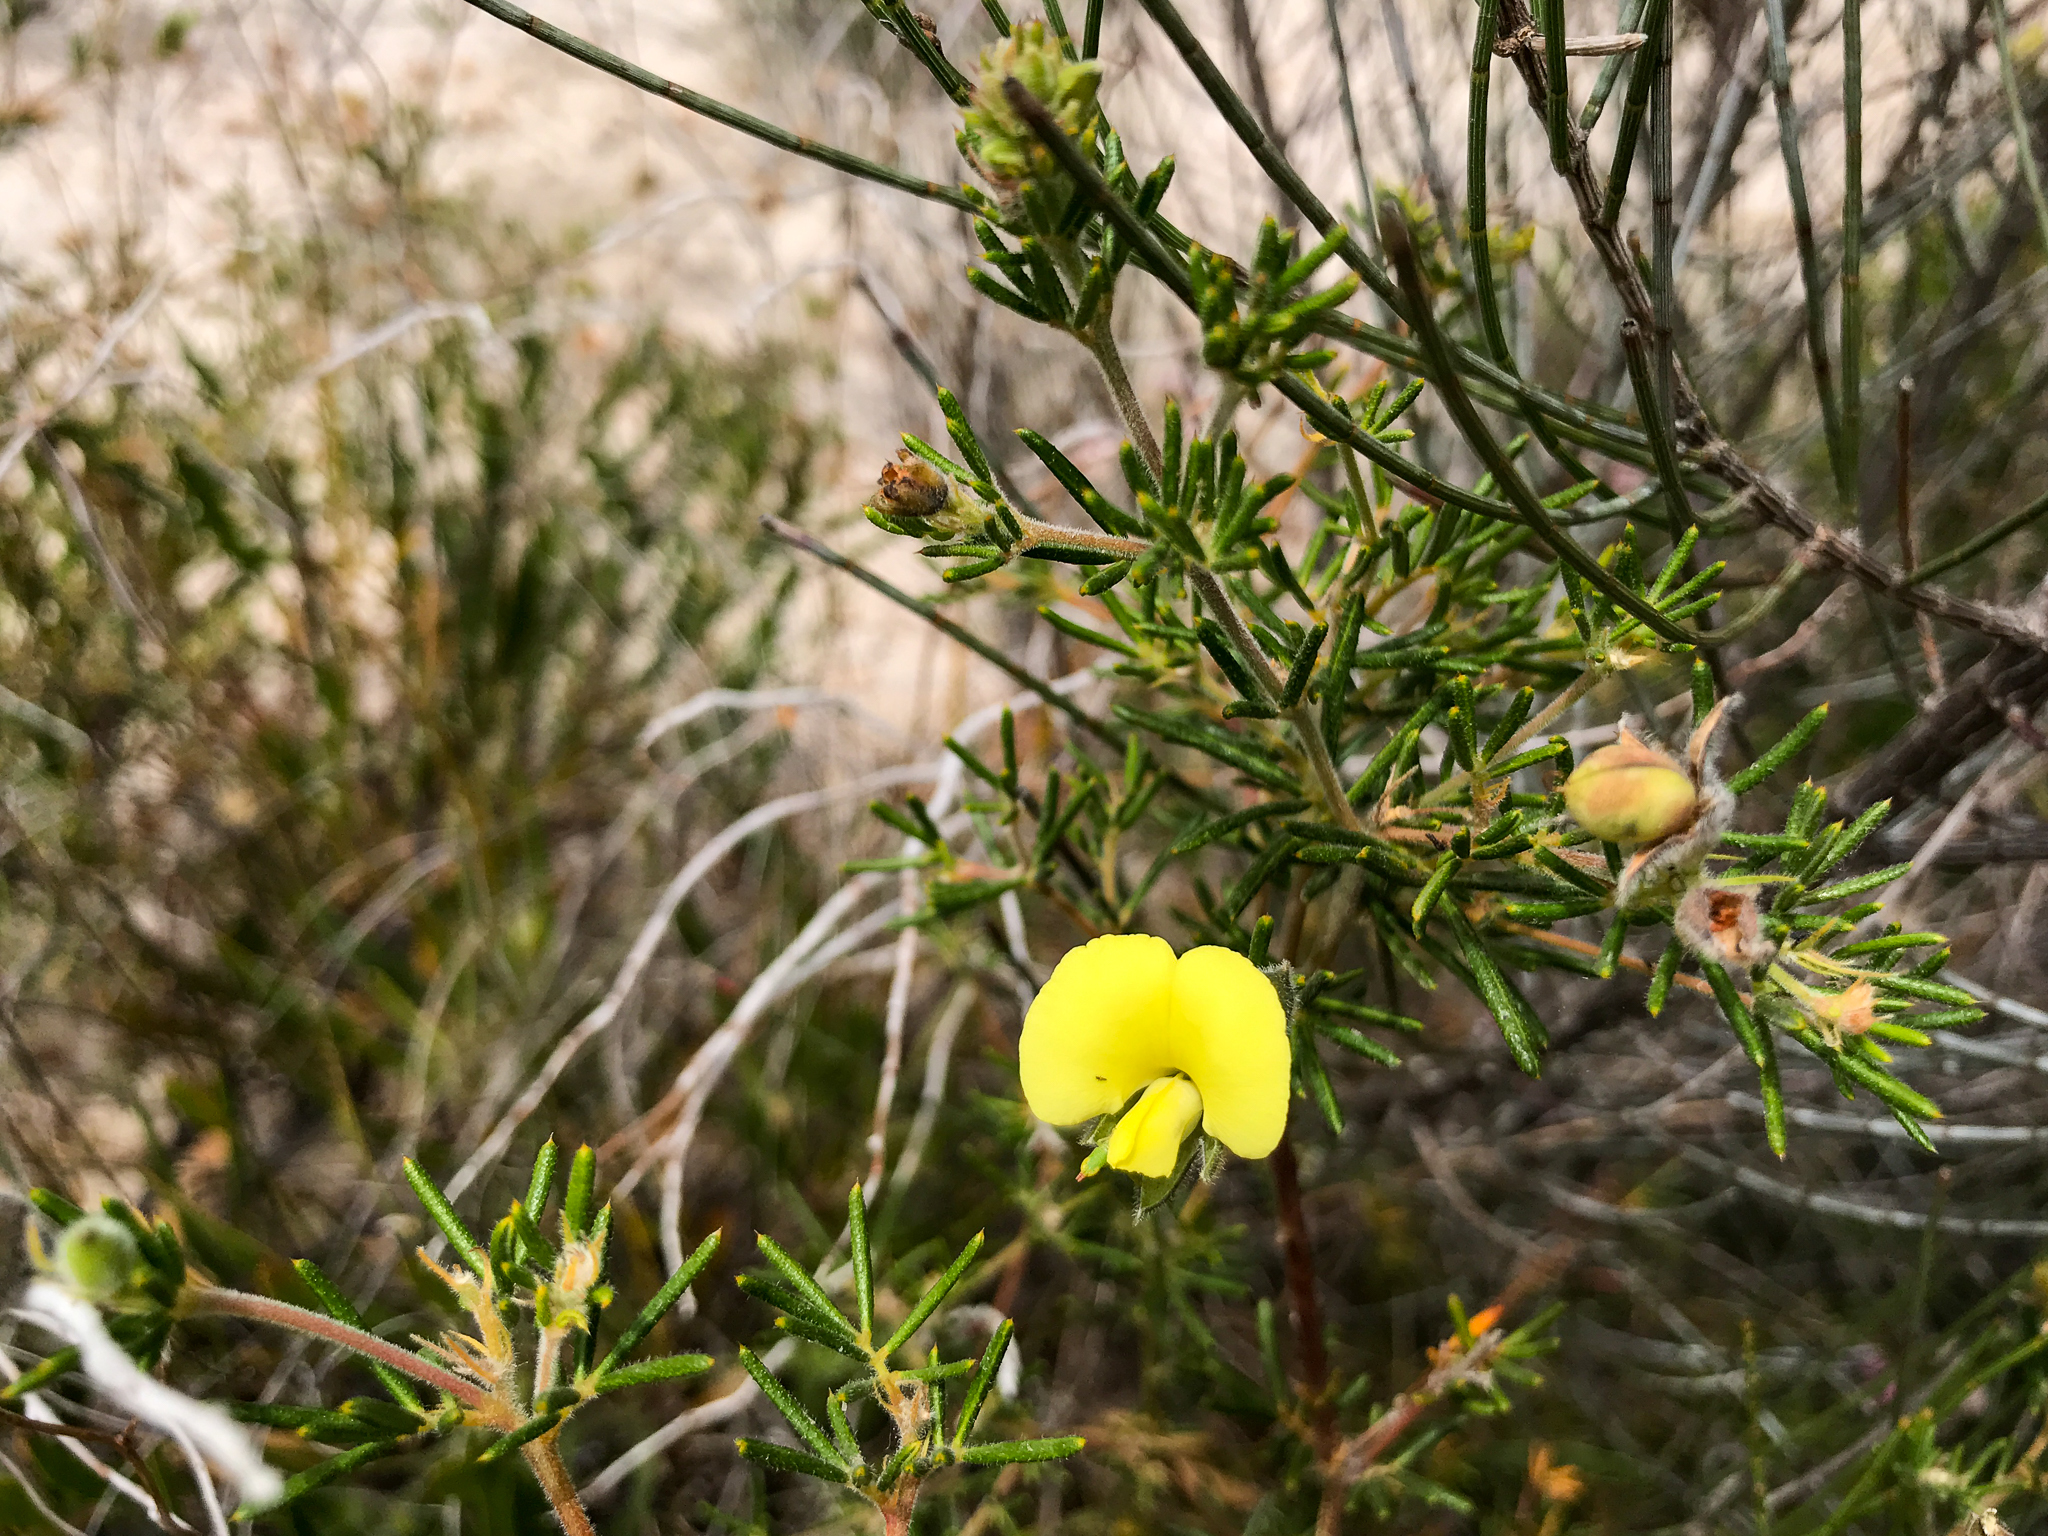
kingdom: Plantae
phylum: Tracheophyta
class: Magnoliopsida
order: Fabales
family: Fabaceae
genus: Gompholobium
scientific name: Gompholobium tomentosum
